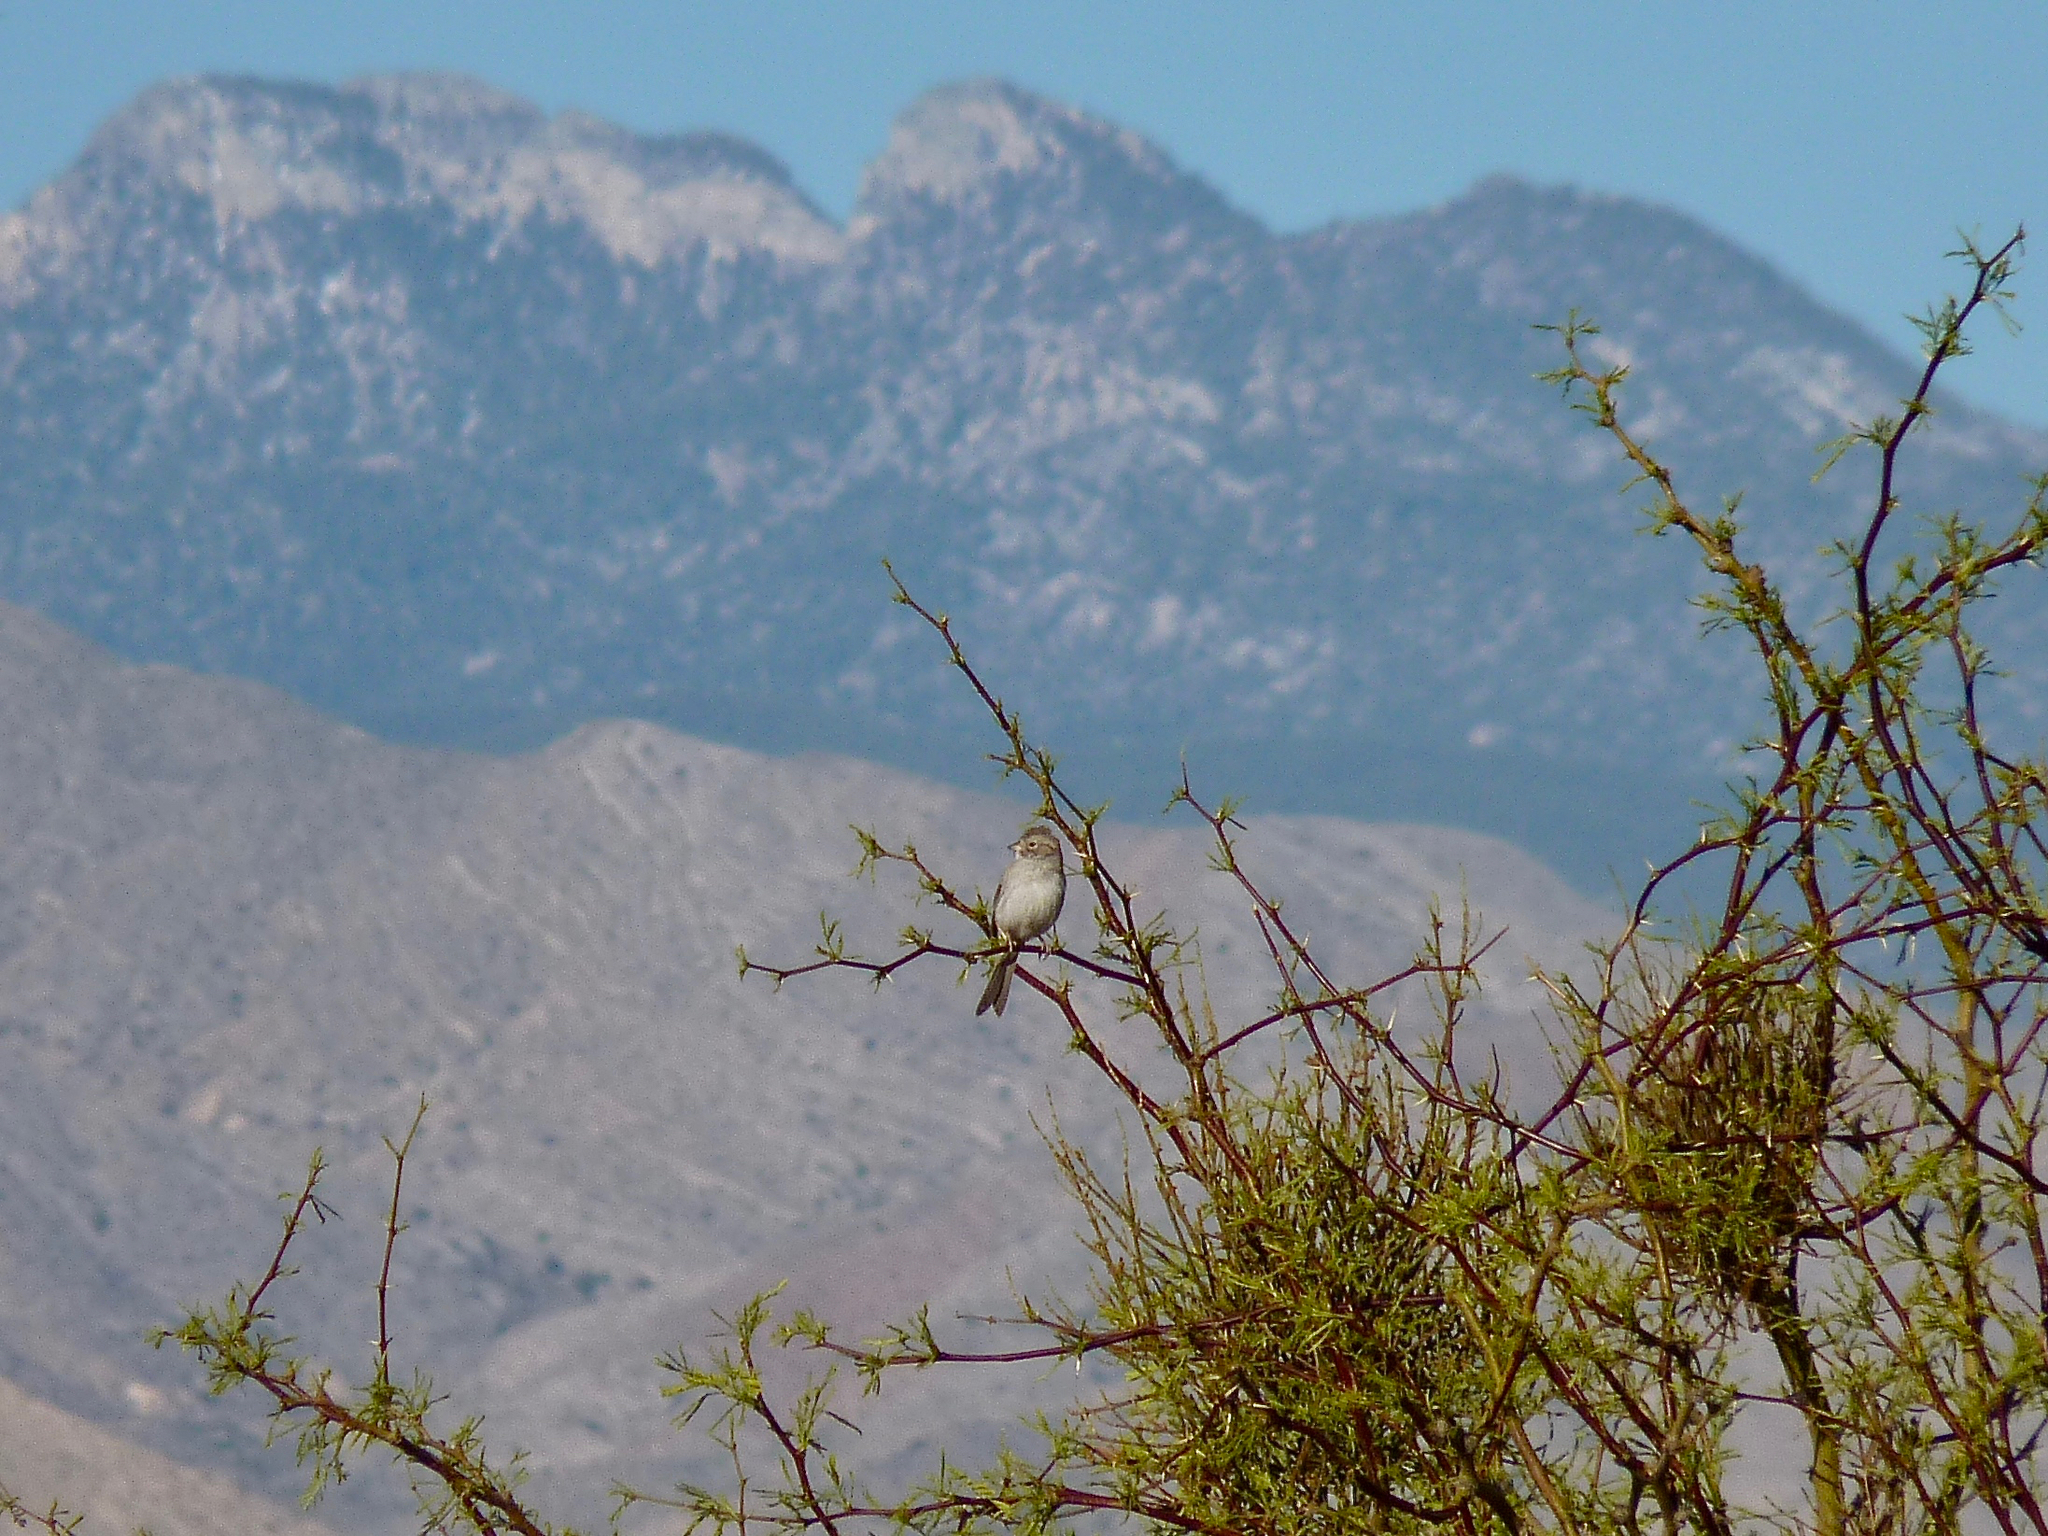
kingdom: Animalia
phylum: Chordata
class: Aves
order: Passeriformes
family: Passerellidae
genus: Spizella
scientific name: Spizella breweri
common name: Brewer's sparrow
